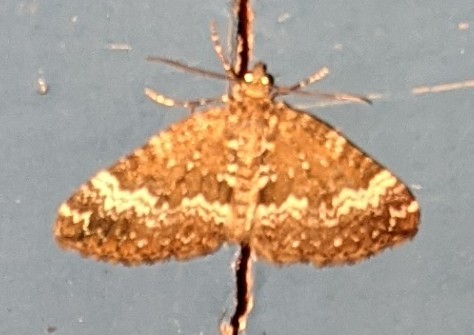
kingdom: Animalia
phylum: Arthropoda
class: Insecta
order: Lepidoptera
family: Geometridae
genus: Perizoma
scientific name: Perizoma alchemillata
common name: Small rivulet
